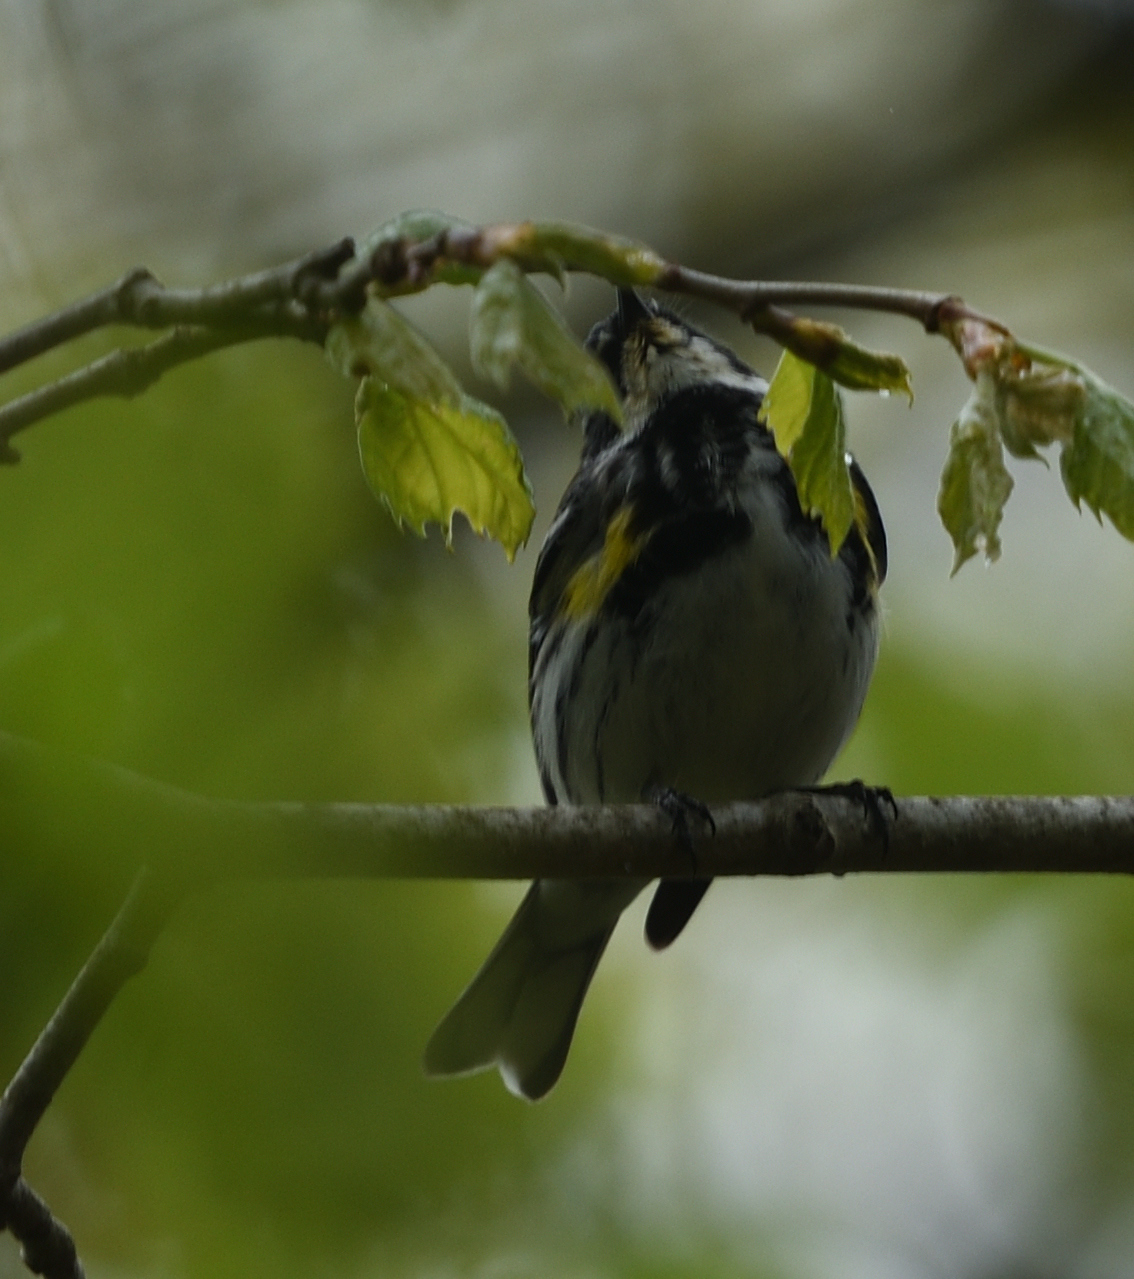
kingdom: Animalia
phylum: Chordata
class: Aves
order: Passeriformes
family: Parulidae
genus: Setophaga
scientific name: Setophaga coronata
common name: Myrtle warbler
